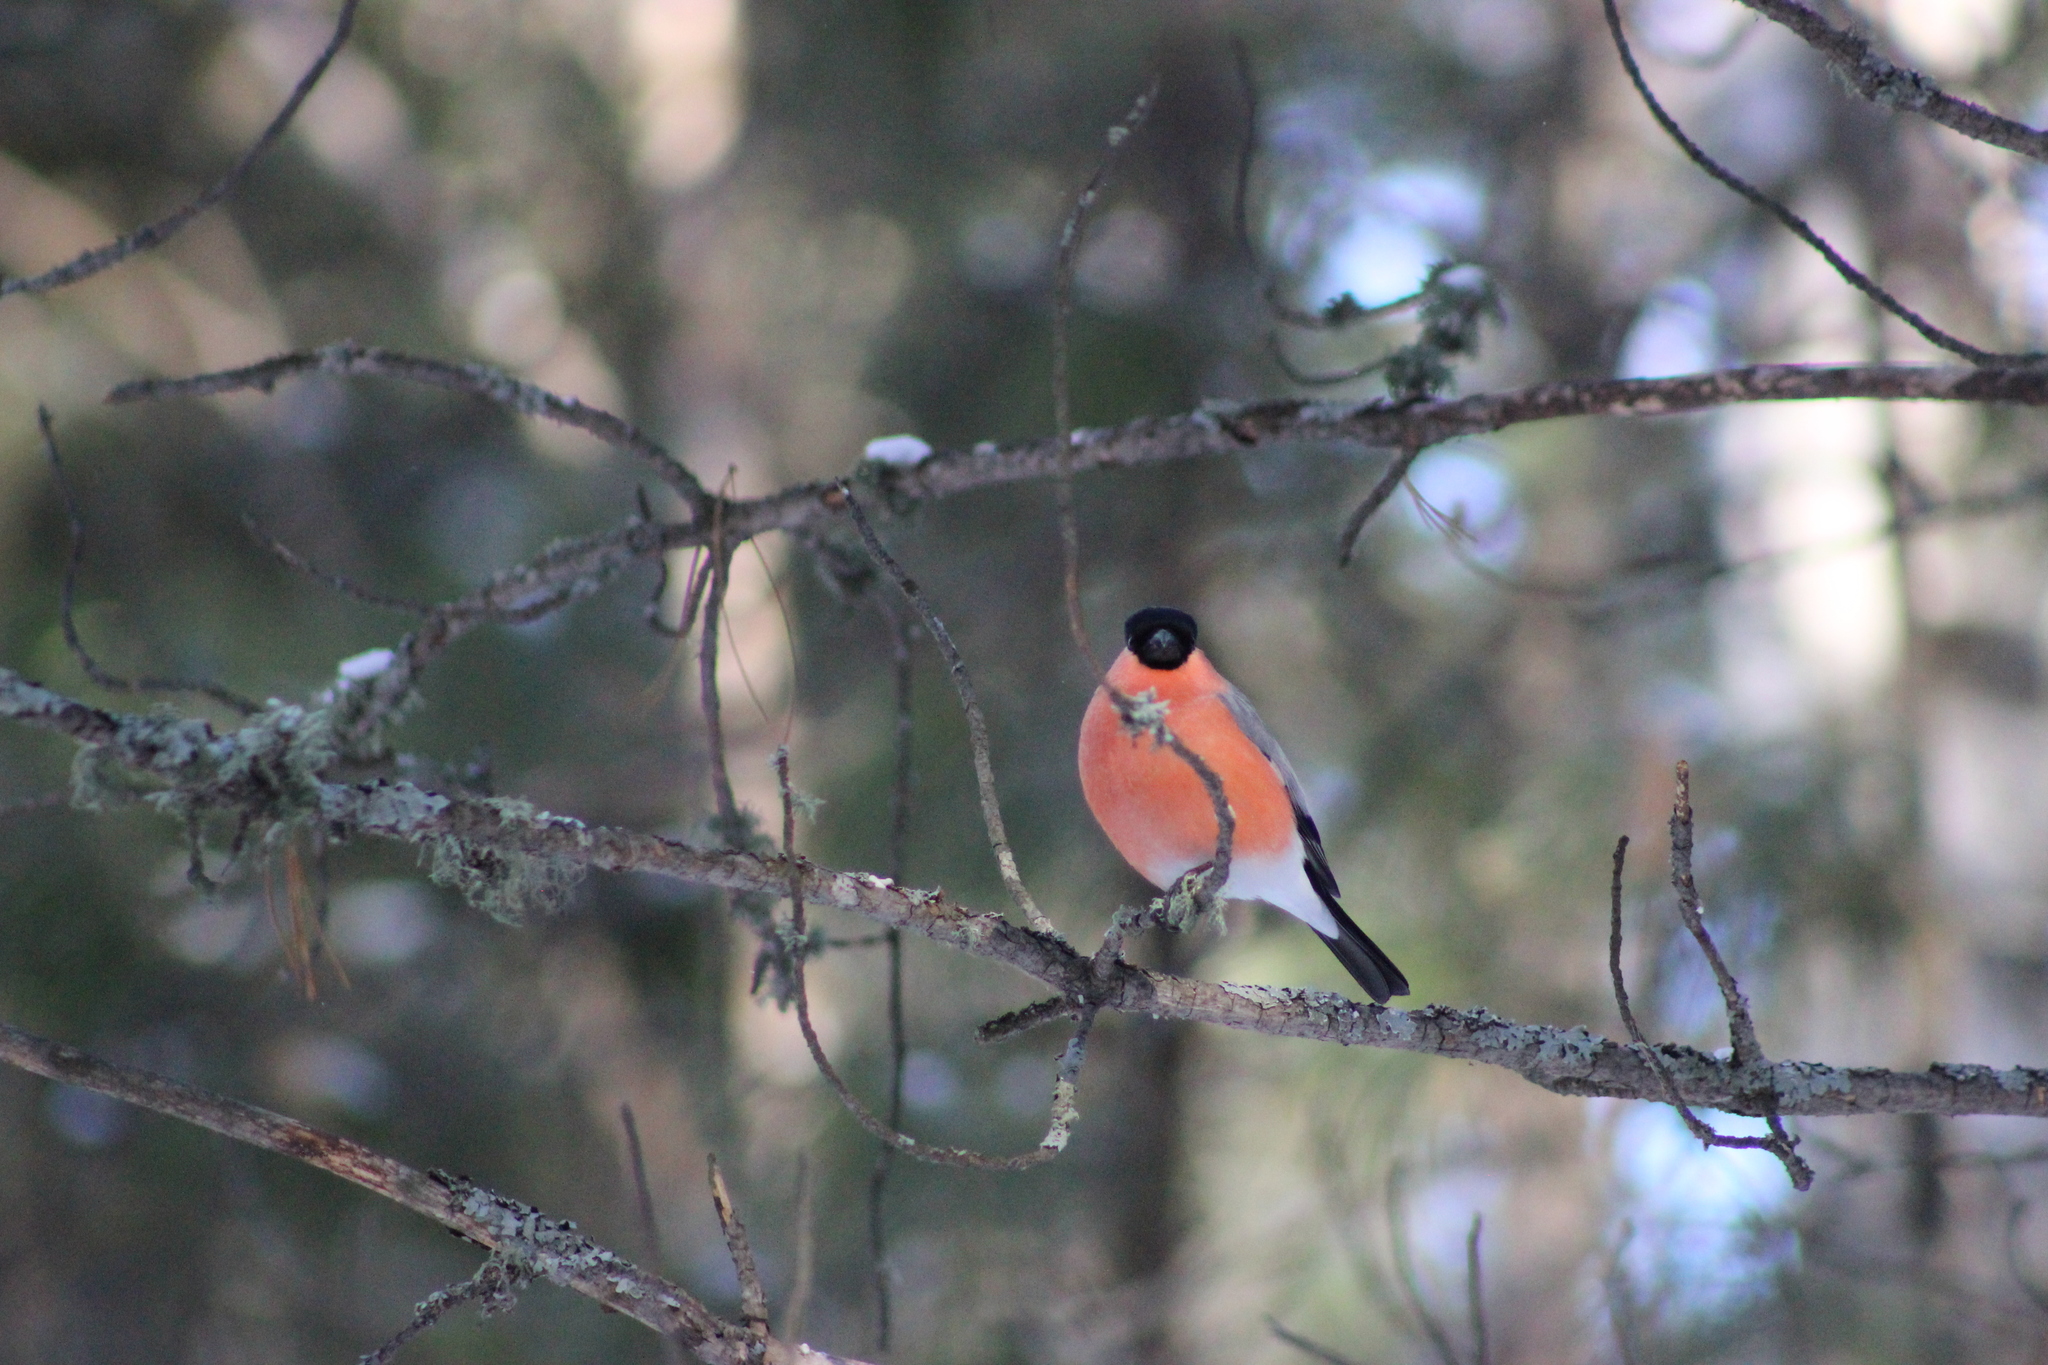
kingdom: Animalia
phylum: Chordata
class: Aves
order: Passeriformes
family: Fringillidae
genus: Pyrrhula
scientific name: Pyrrhula pyrrhula
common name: Eurasian bullfinch
